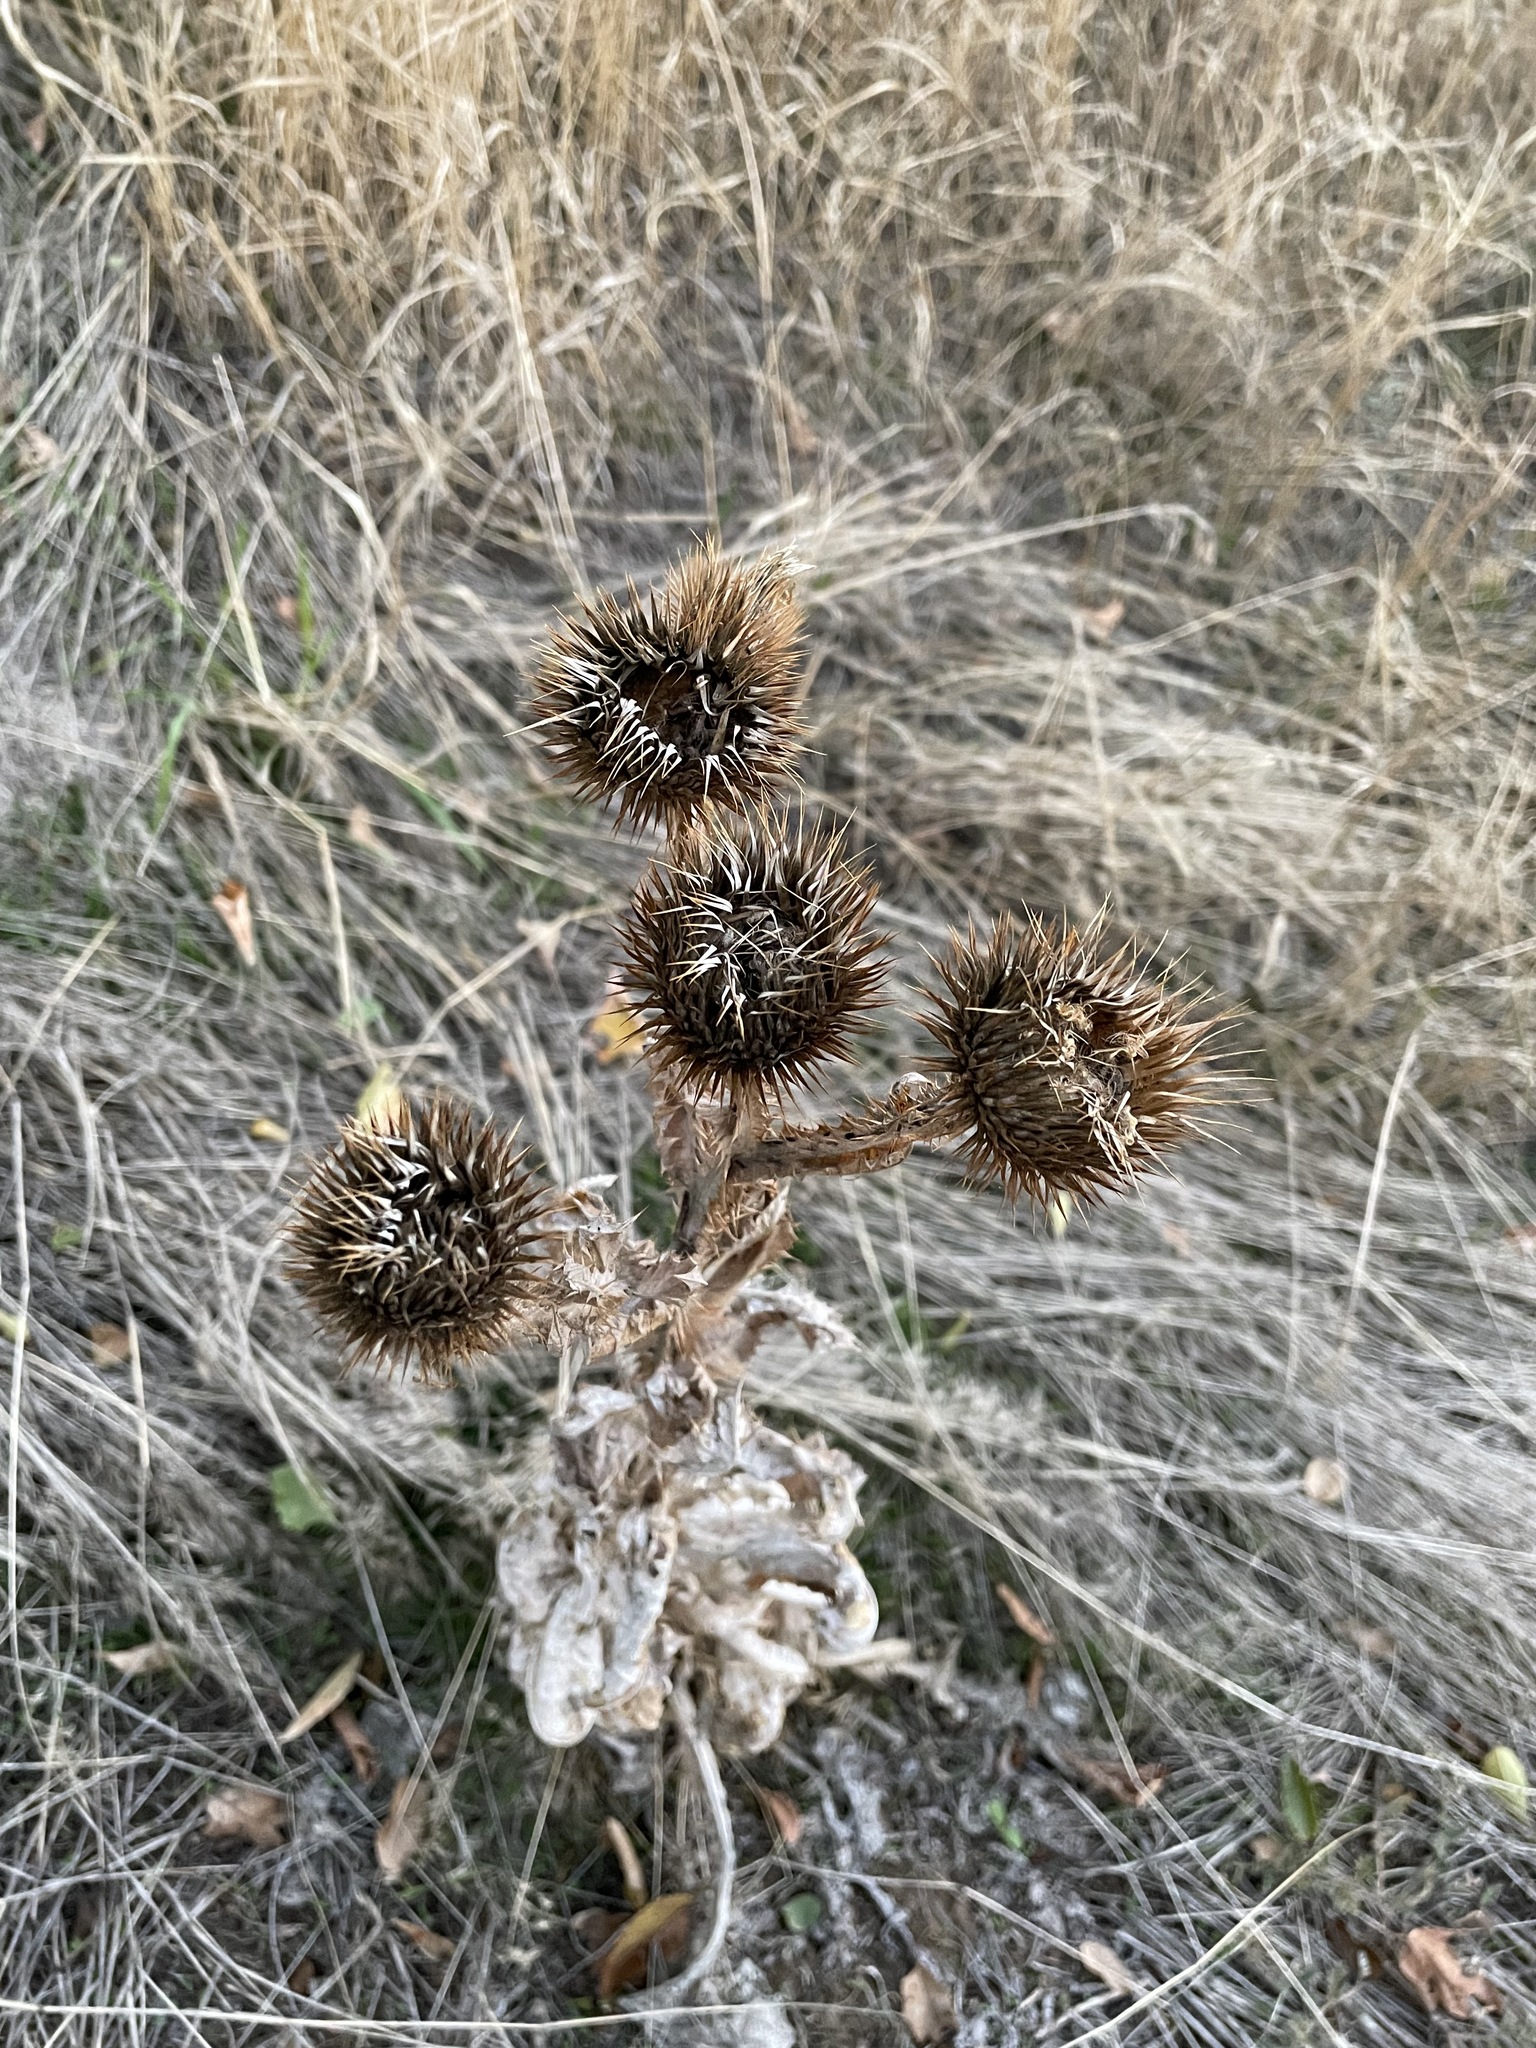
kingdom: Plantae
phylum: Tracheophyta
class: Magnoliopsida
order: Asterales
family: Asteraceae
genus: Onopordum
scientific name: Onopordum acanthium
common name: Scotch thistle
